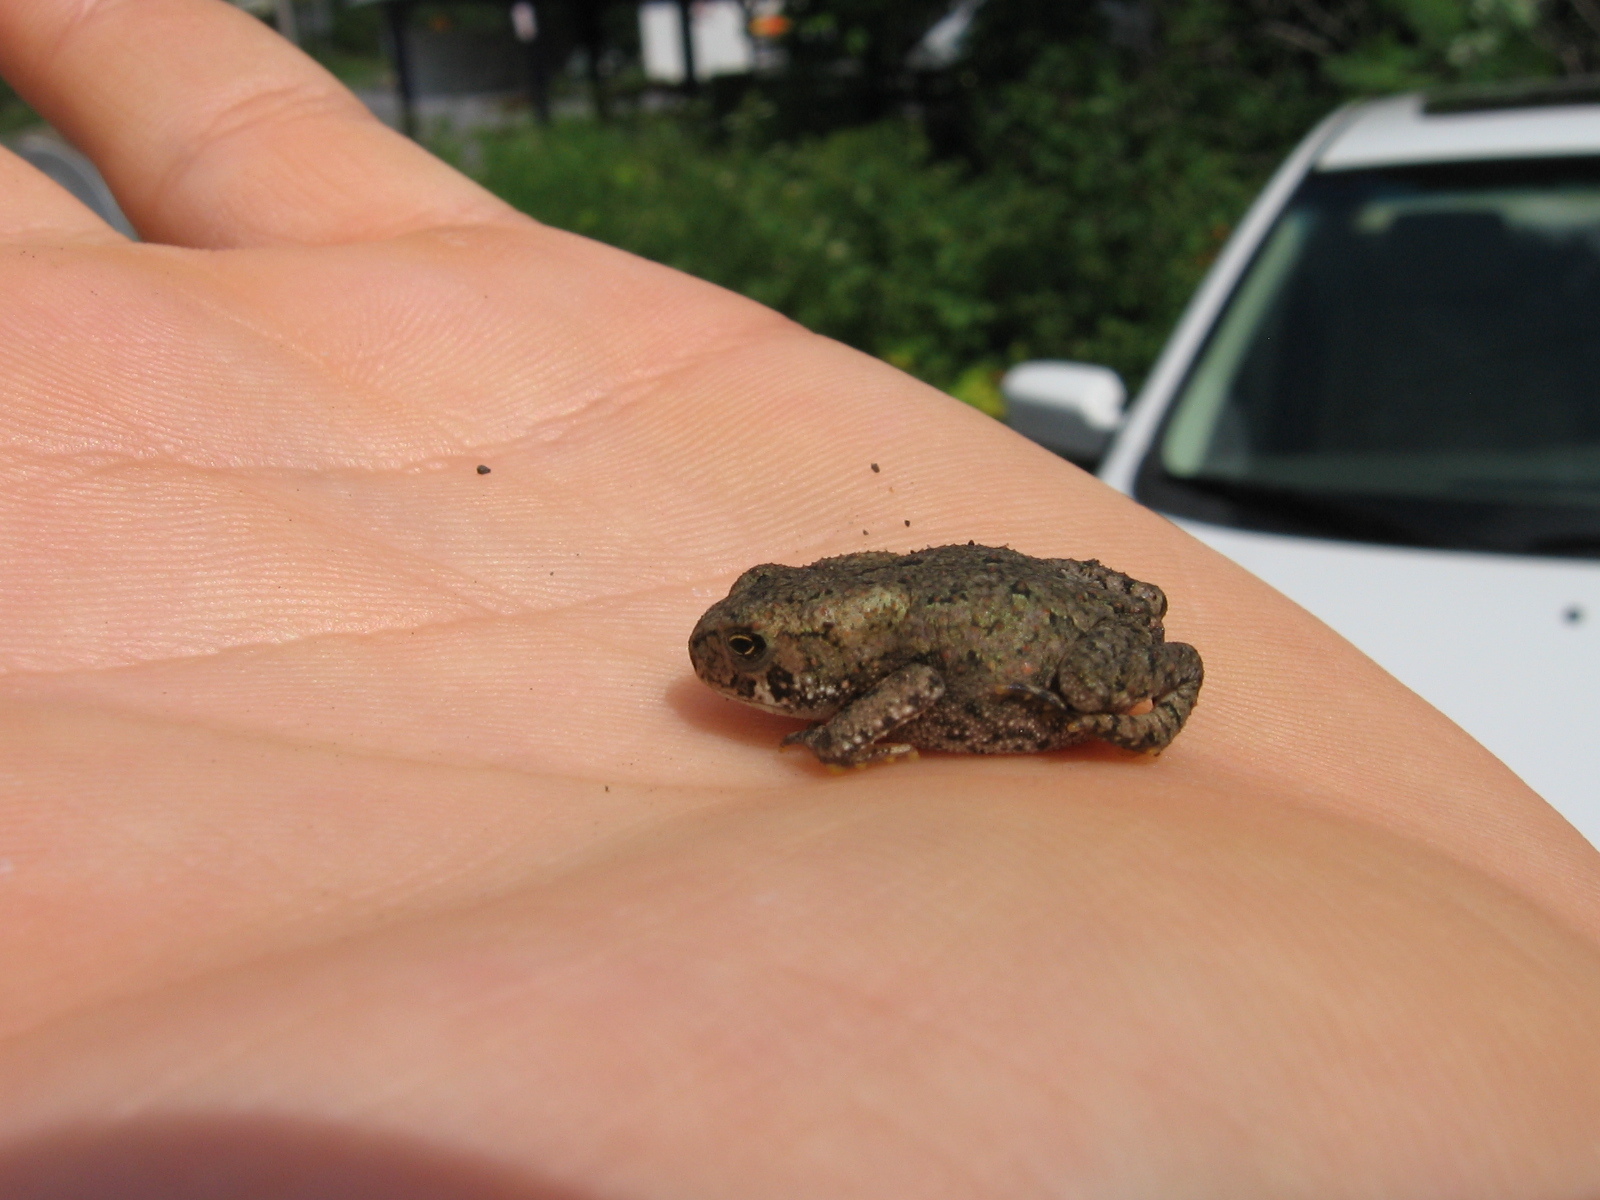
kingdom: Animalia
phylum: Chordata
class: Amphibia
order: Anura
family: Bufonidae
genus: Anaxyrus
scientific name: Anaxyrus americanus
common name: American toad
